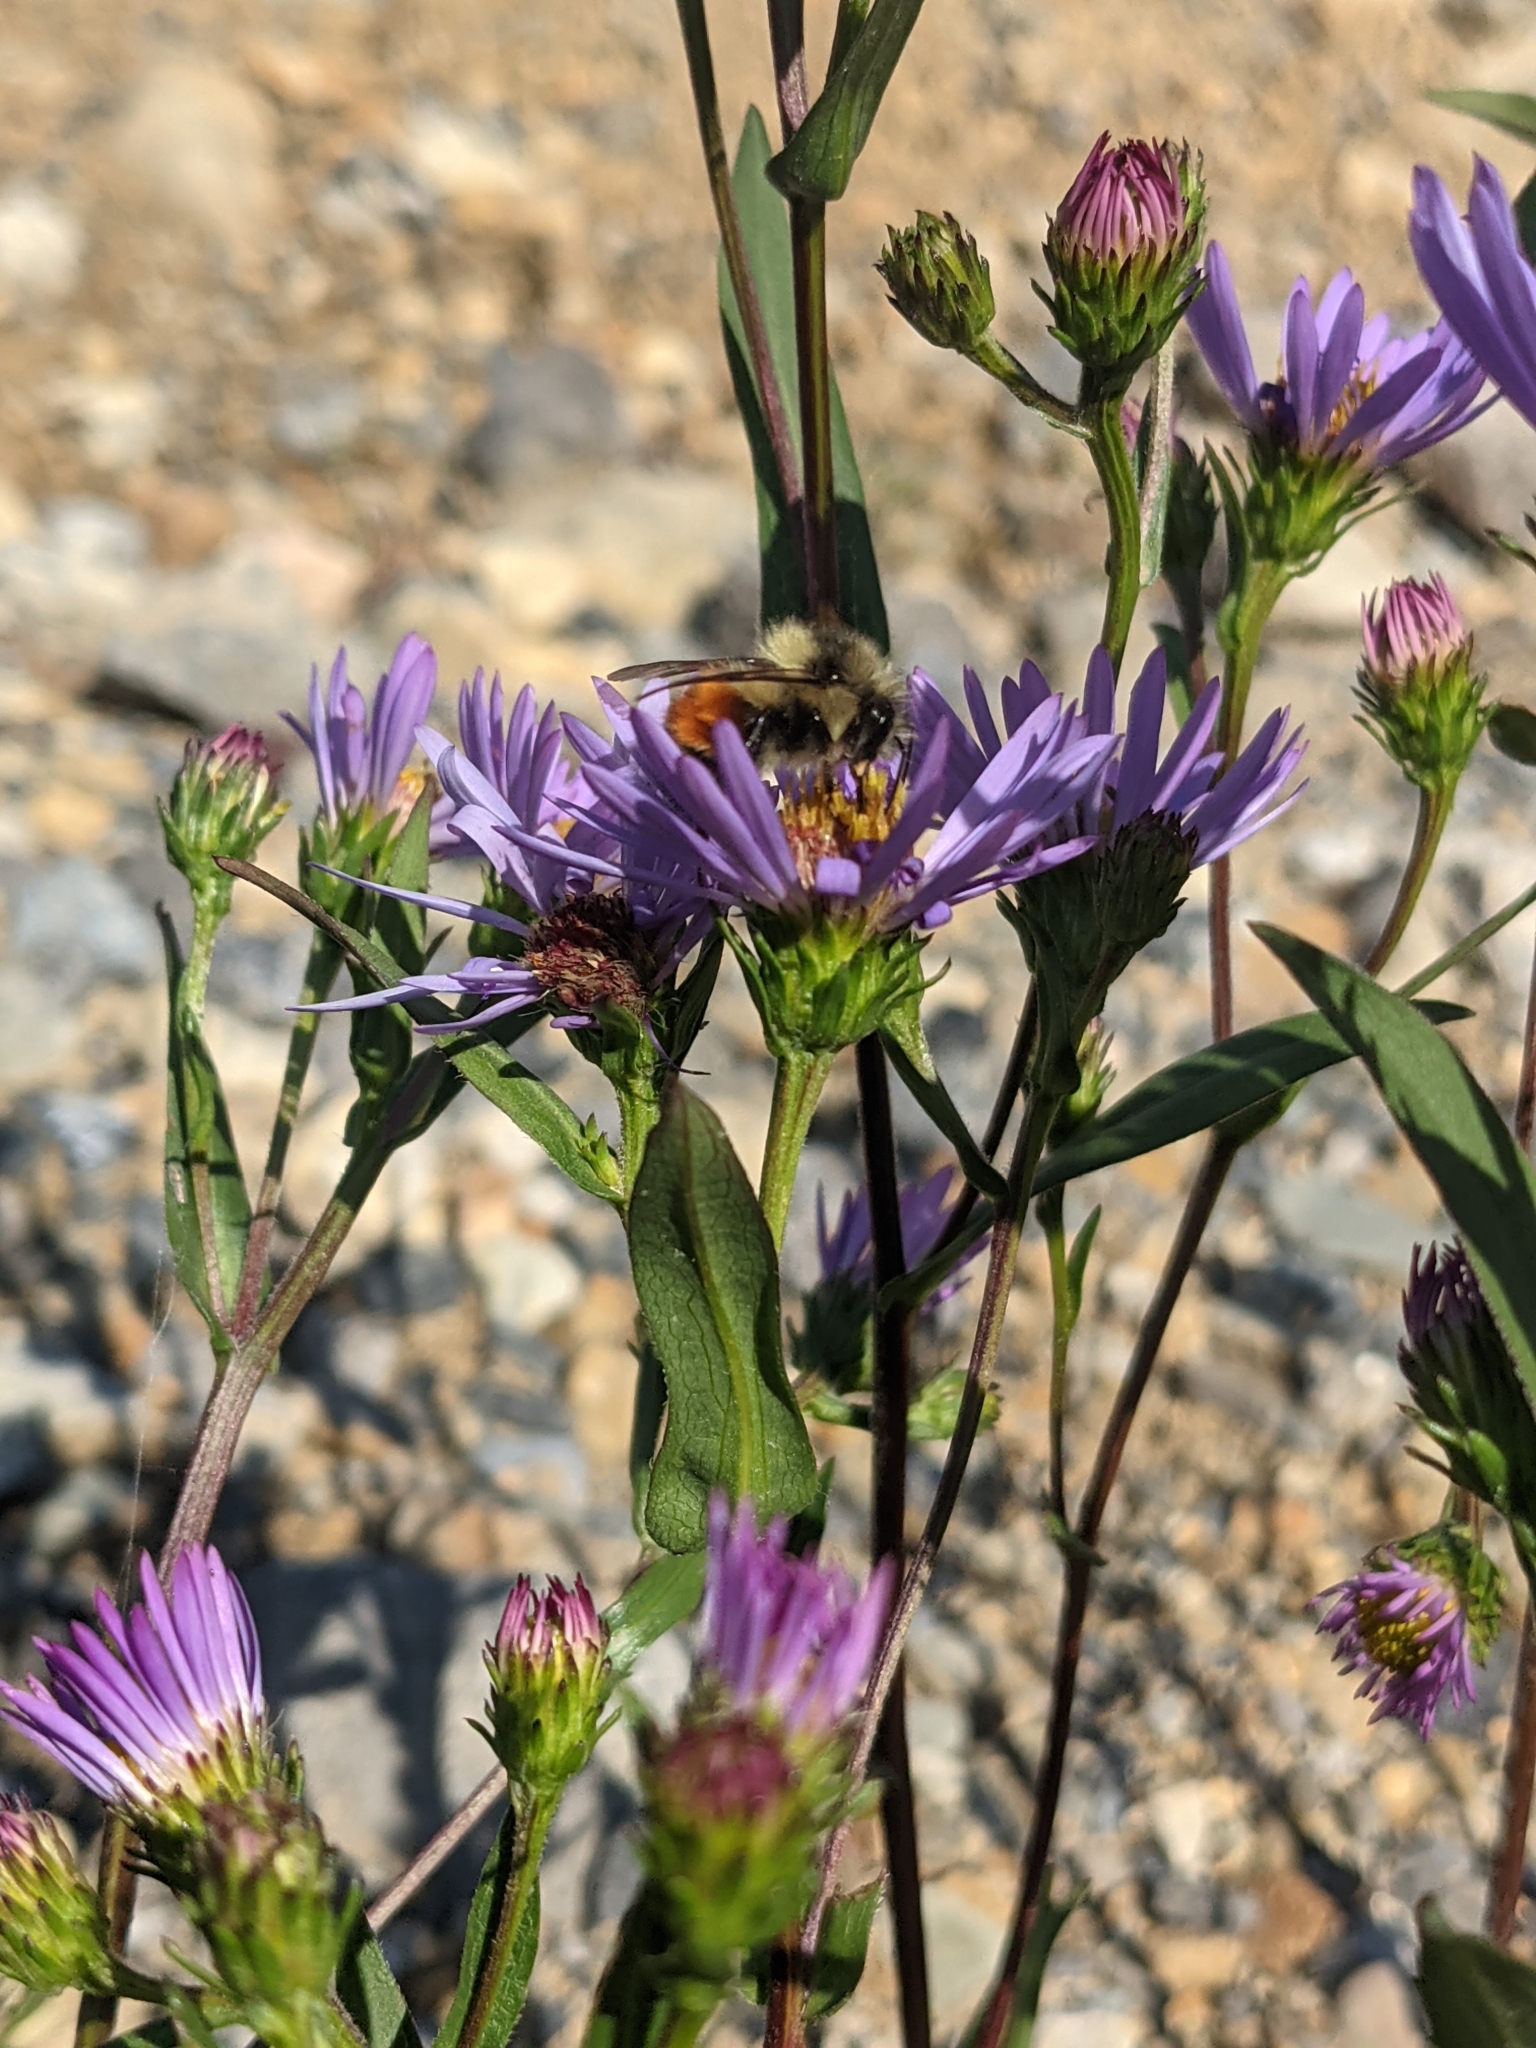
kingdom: Animalia
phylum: Arthropoda
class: Insecta
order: Hymenoptera
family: Apidae
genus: Bombus
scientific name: Bombus melanopygus
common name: Black tail bumble bee
